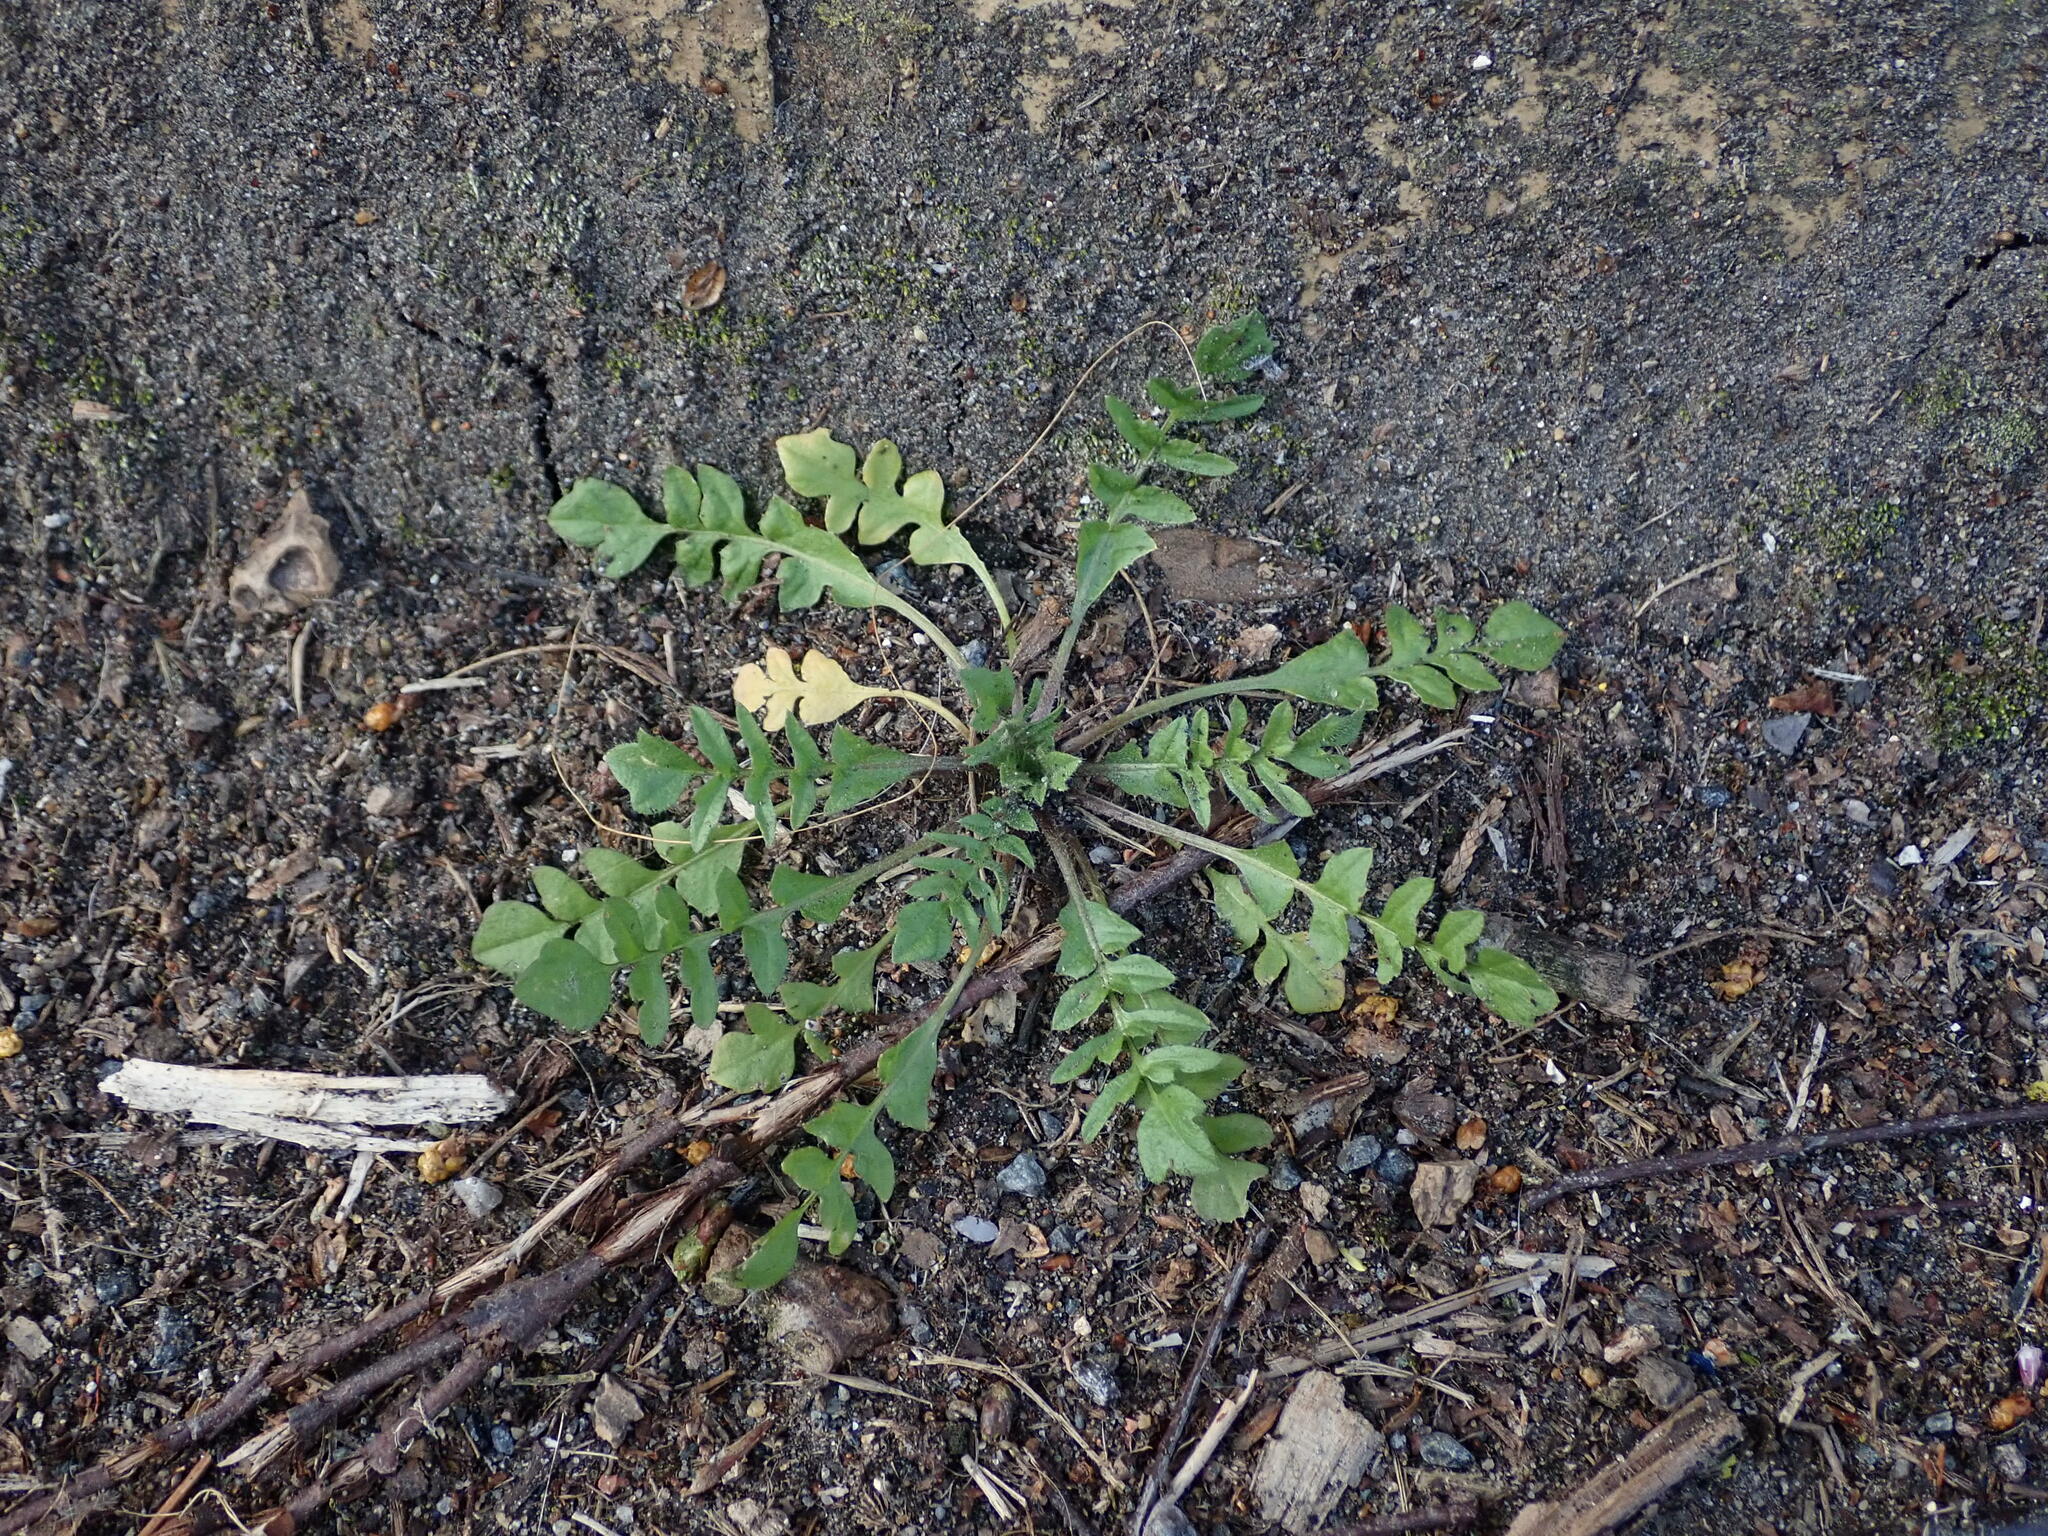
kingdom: Plantae
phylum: Tracheophyta
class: Magnoliopsida
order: Brassicales
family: Brassicaceae
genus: Capsella
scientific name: Capsella bursa-pastoris
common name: Shepherd's purse
